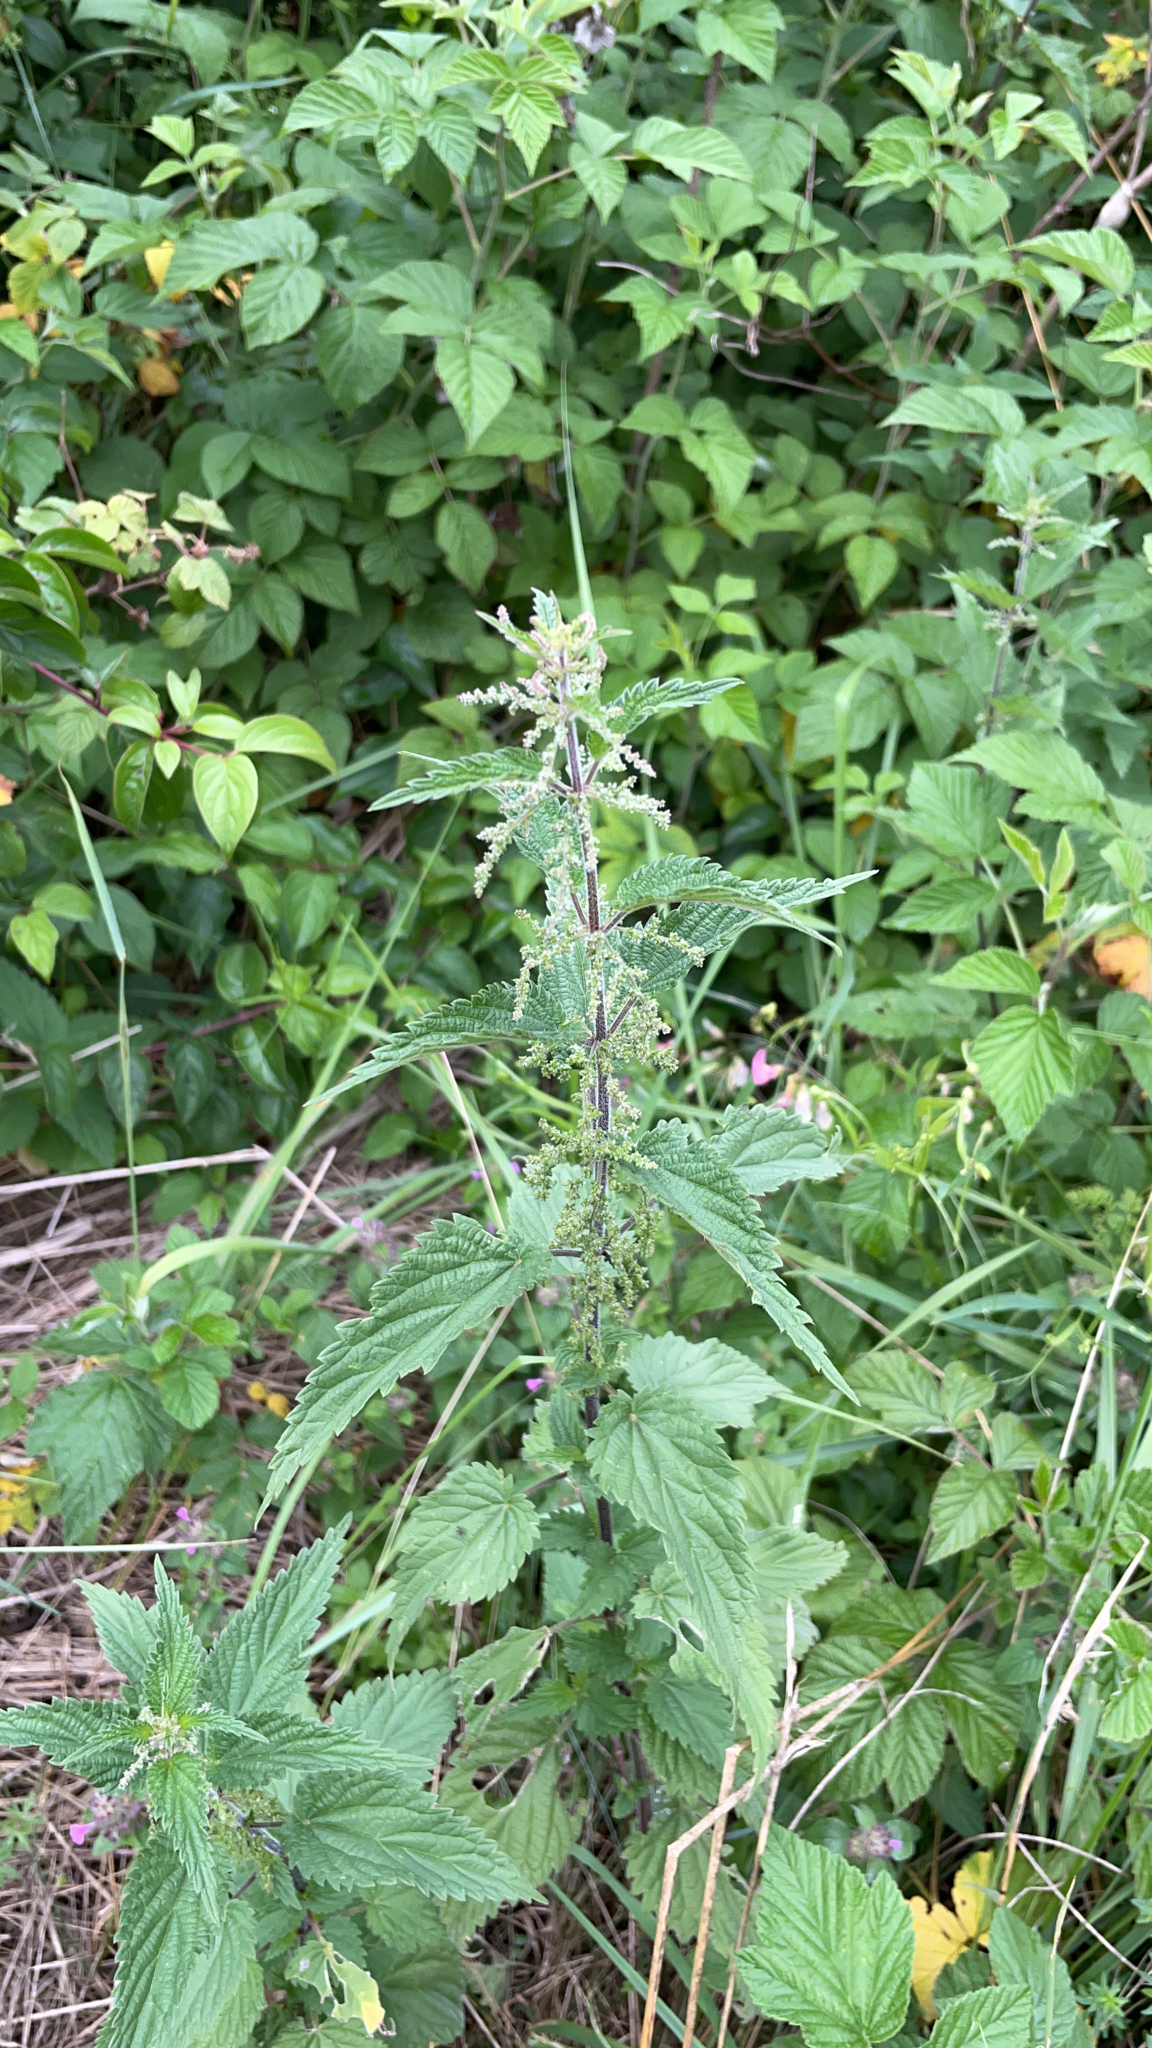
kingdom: Plantae
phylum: Tracheophyta
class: Magnoliopsida
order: Rosales
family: Urticaceae
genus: Urtica
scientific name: Urtica dioica
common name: Common nettle
